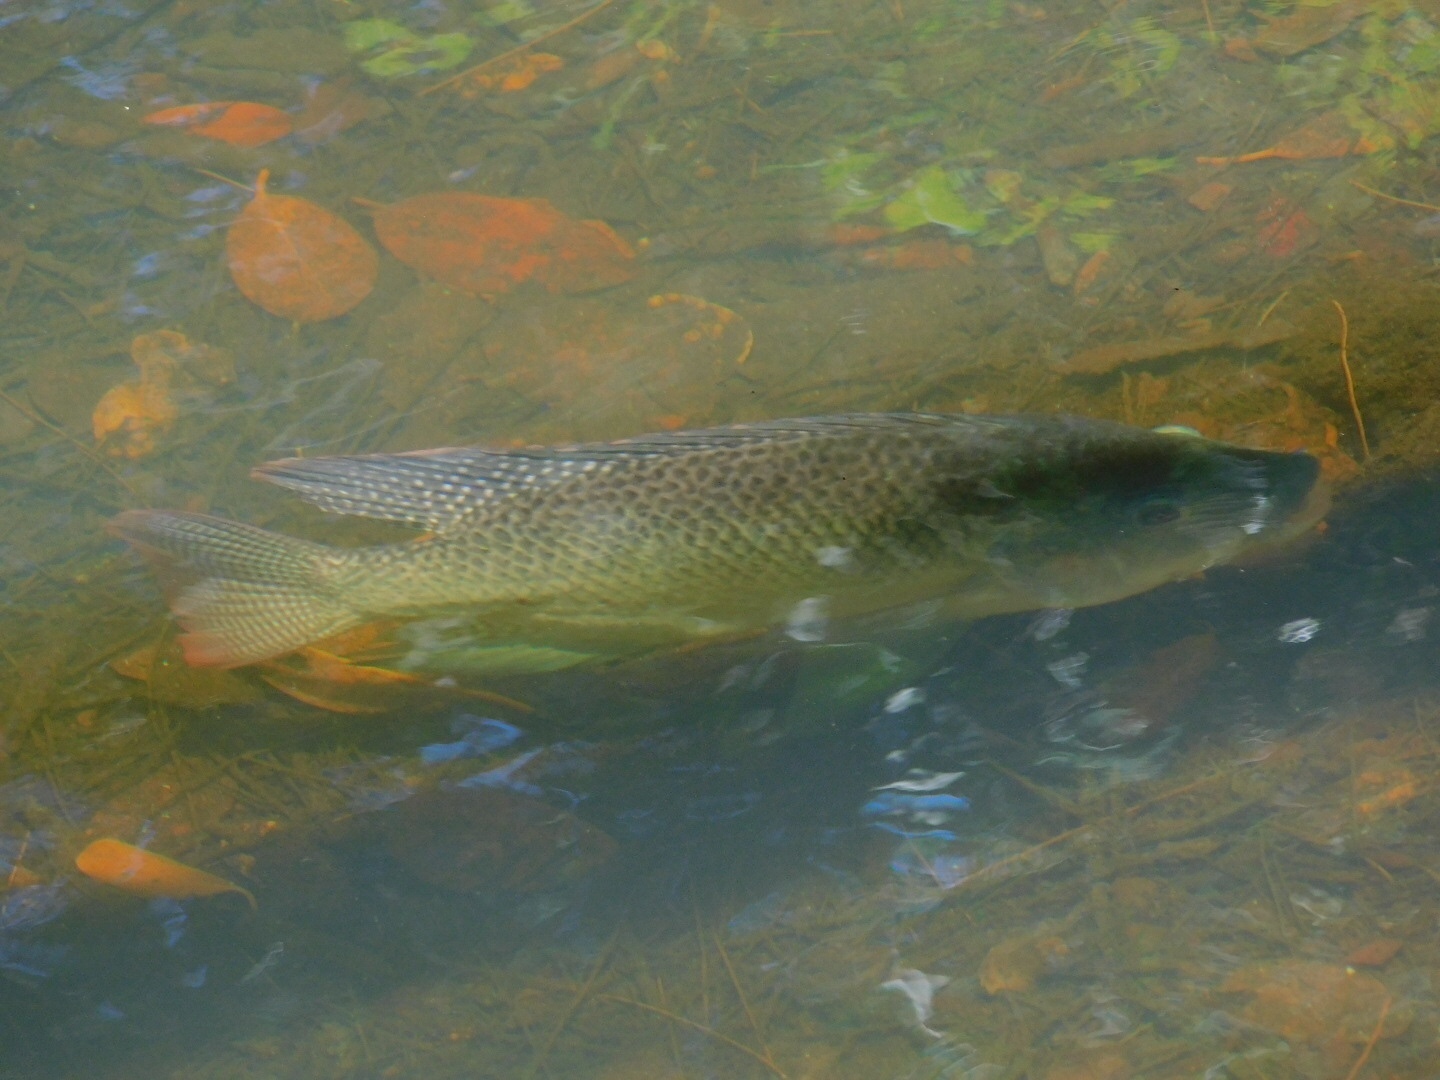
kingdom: Animalia
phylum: Chordata
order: Perciformes
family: Cichlidae
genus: Oreochromis
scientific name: Oreochromis aureus
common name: Blue tilapia
